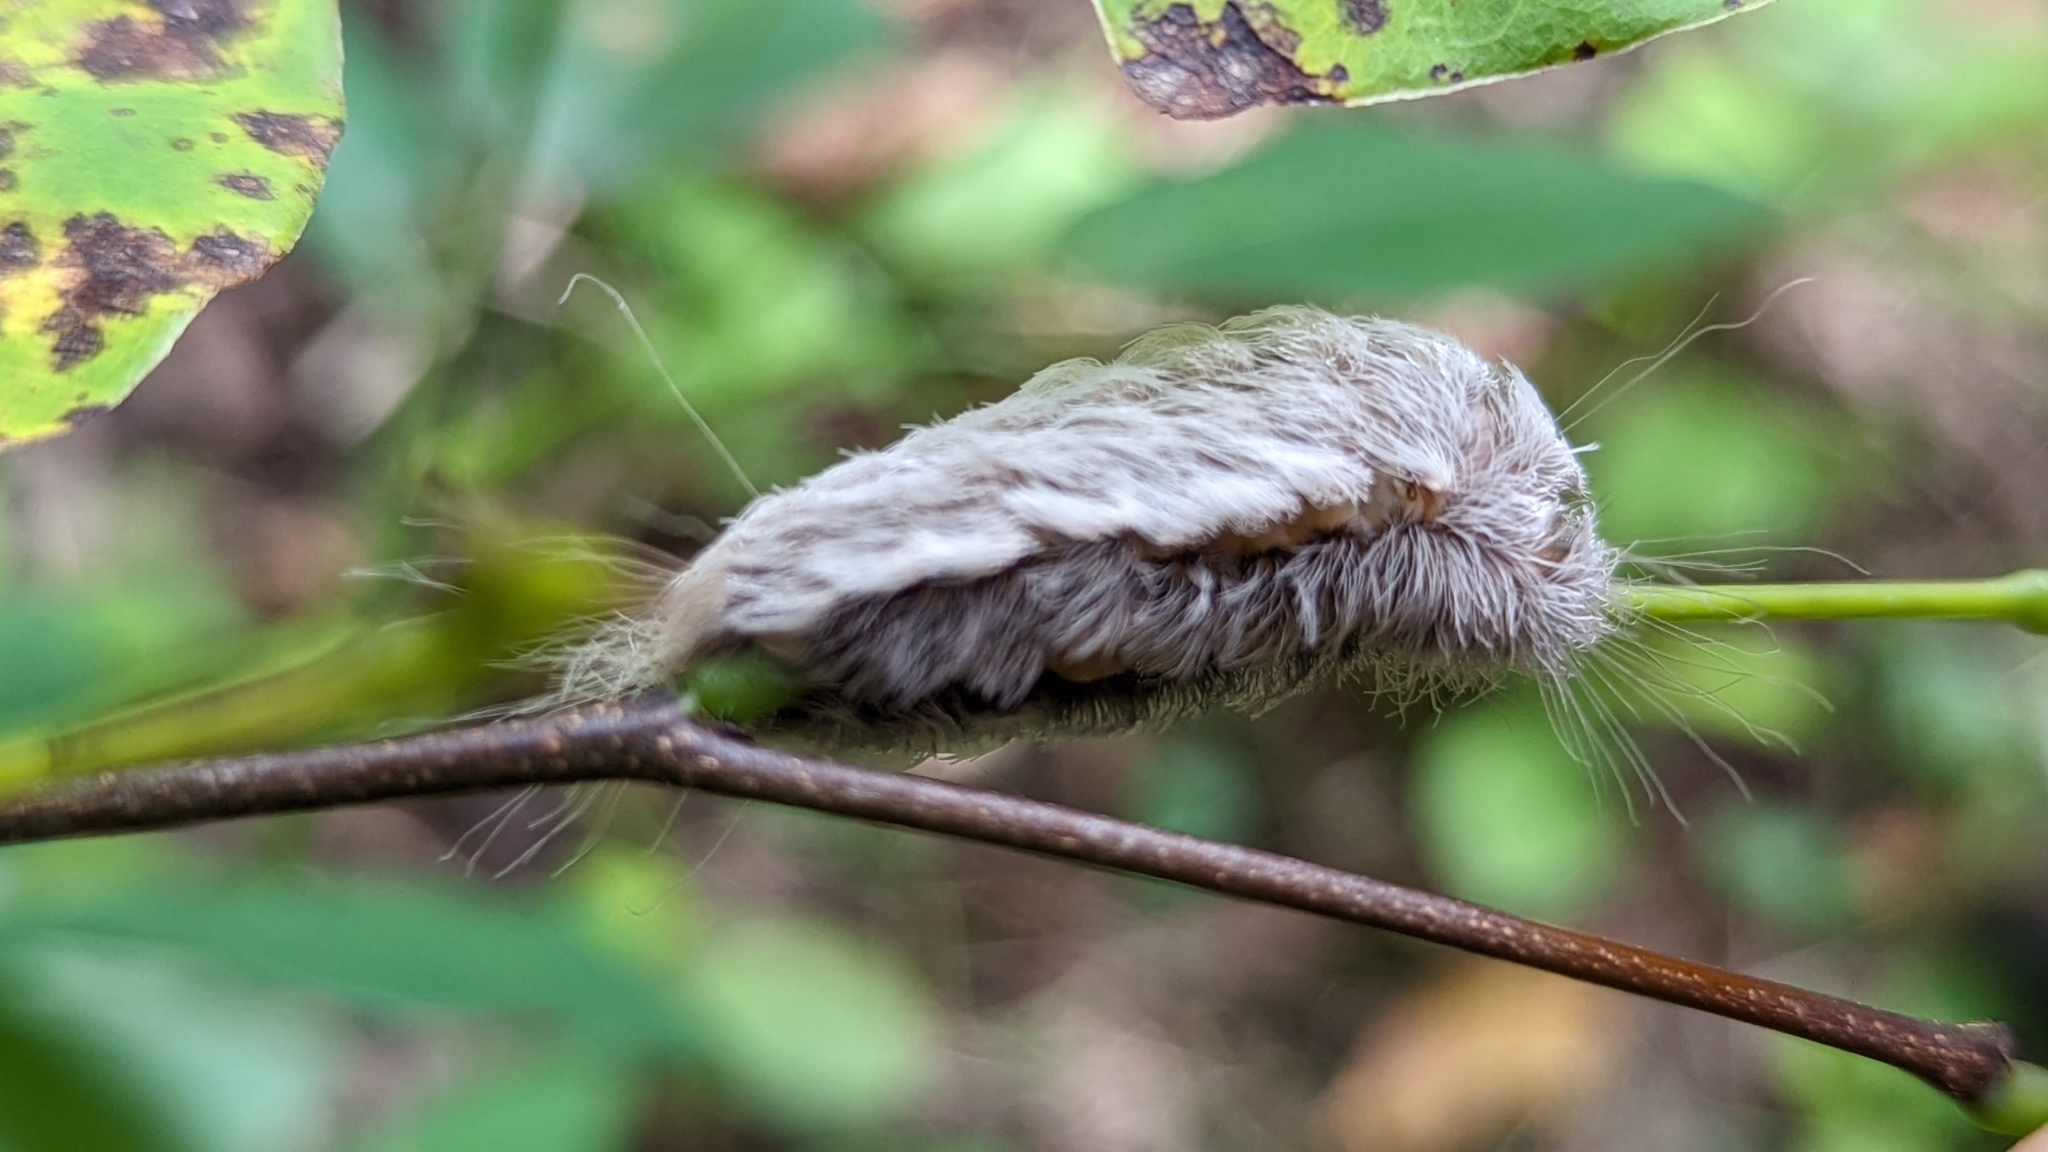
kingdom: Animalia
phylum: Arthropoda
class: Insecta
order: Lepidoptera
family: Megalopygidae
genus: Megalopyge
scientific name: Megalopyge crispata
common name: Black-waved flannel moth
